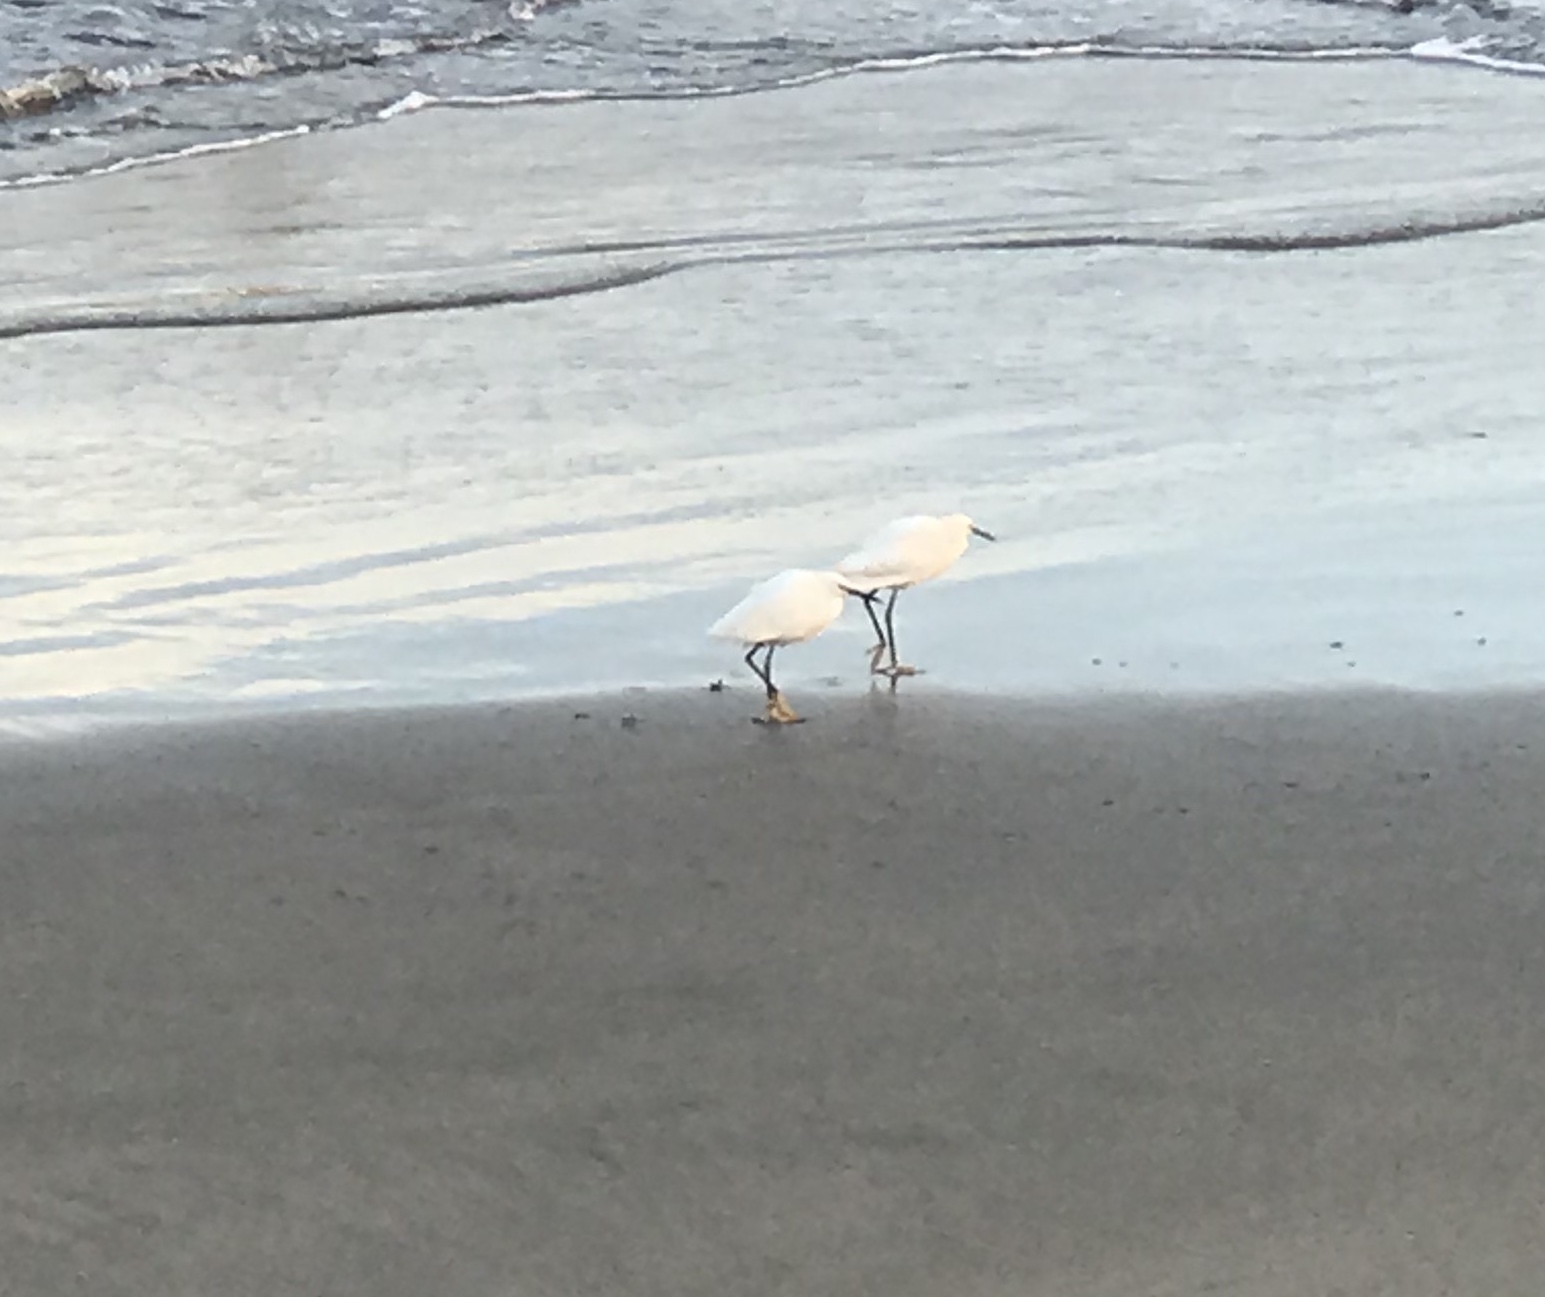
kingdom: Animalia
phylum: Chordata
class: Aves
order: Pelecaniformes
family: Ardeidae
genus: Egretta
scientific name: Egretta thula
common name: Snowy egret
